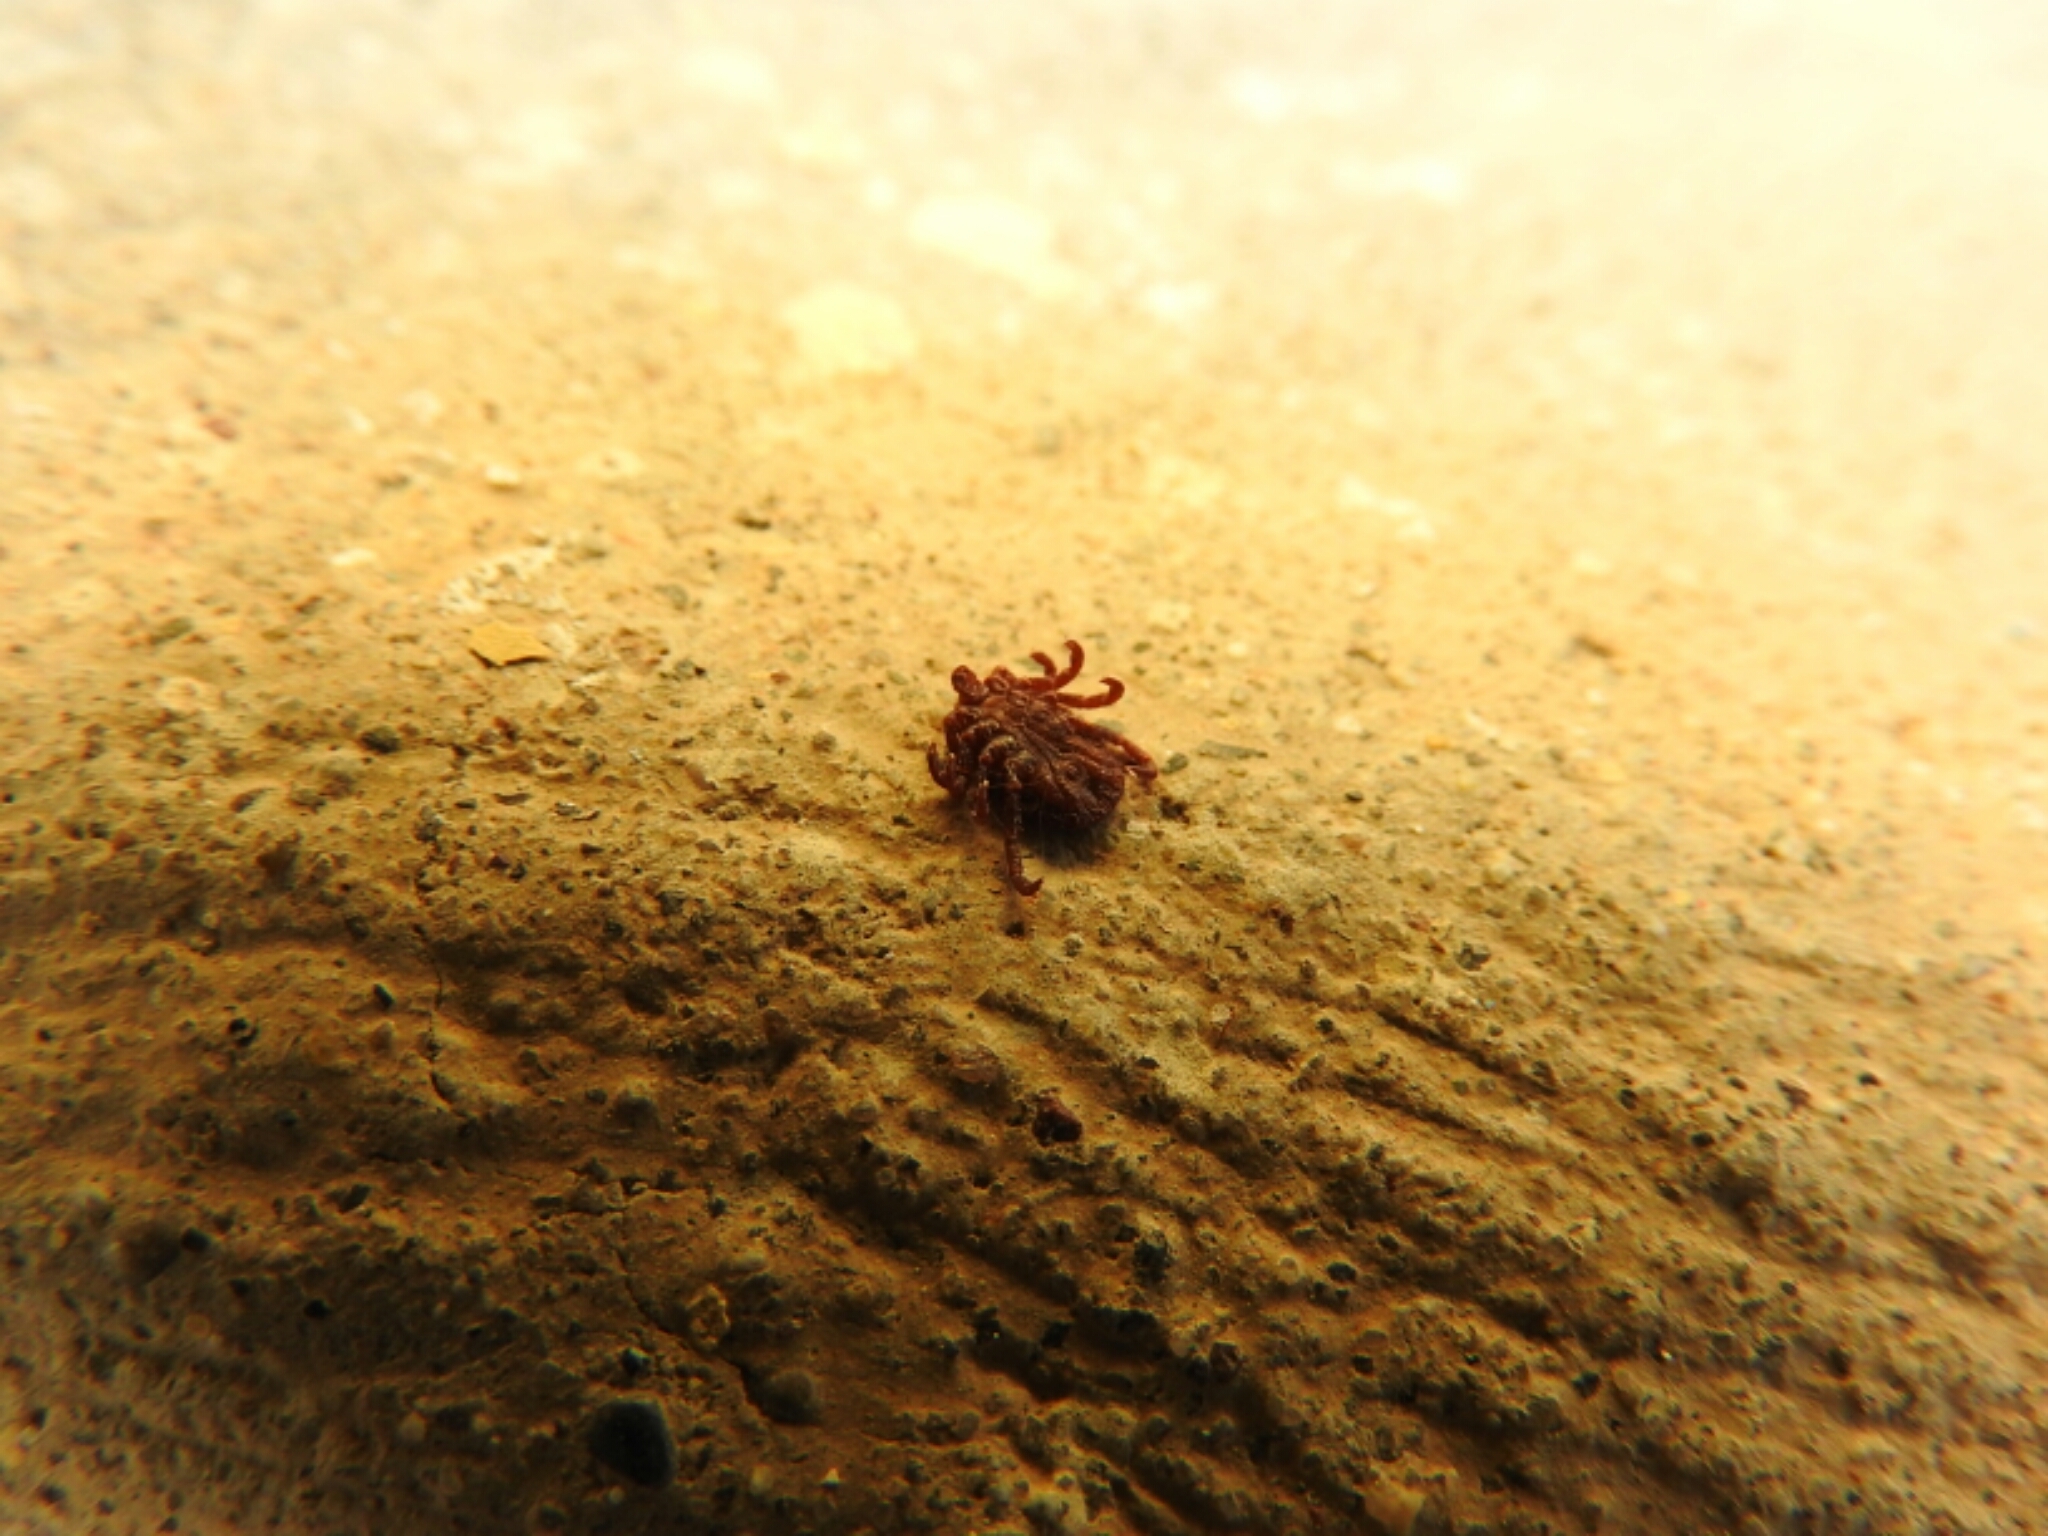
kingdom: Animalia
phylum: Arthropoda
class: Arachnida
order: Ixodida
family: Ixodidae
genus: Dermacentor
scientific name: Dermacentor
